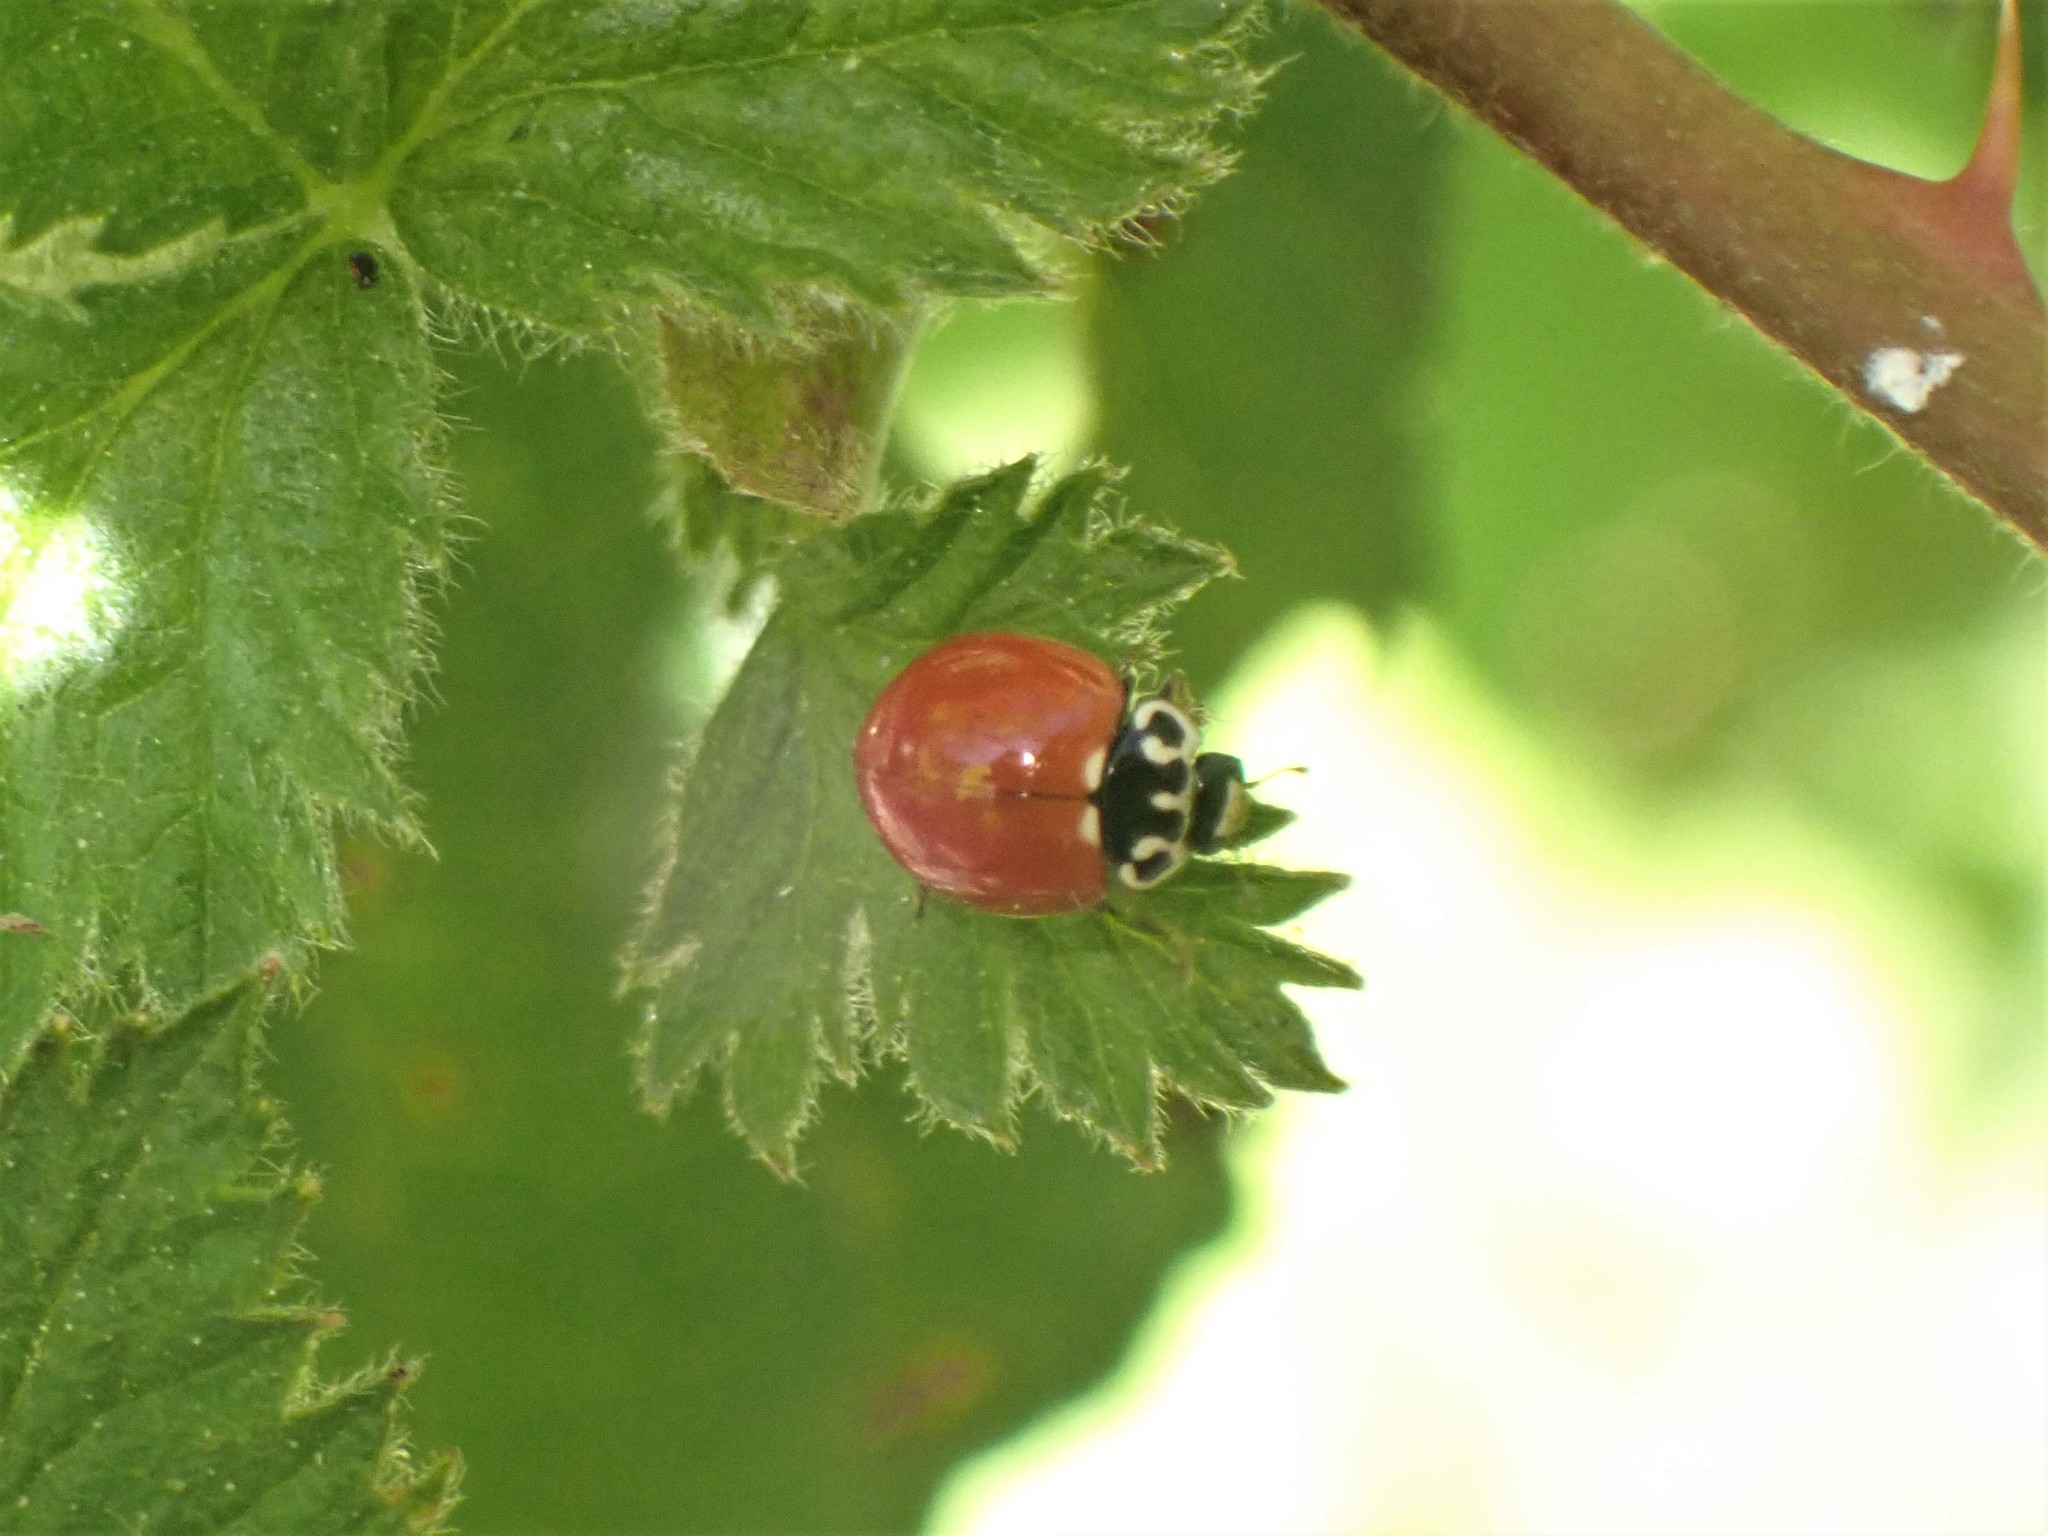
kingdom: Animalia
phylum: Arthropoda
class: Insecta
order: Coleoptera
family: Coccinellidae
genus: Cycloneda
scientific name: Cycloneda polita
